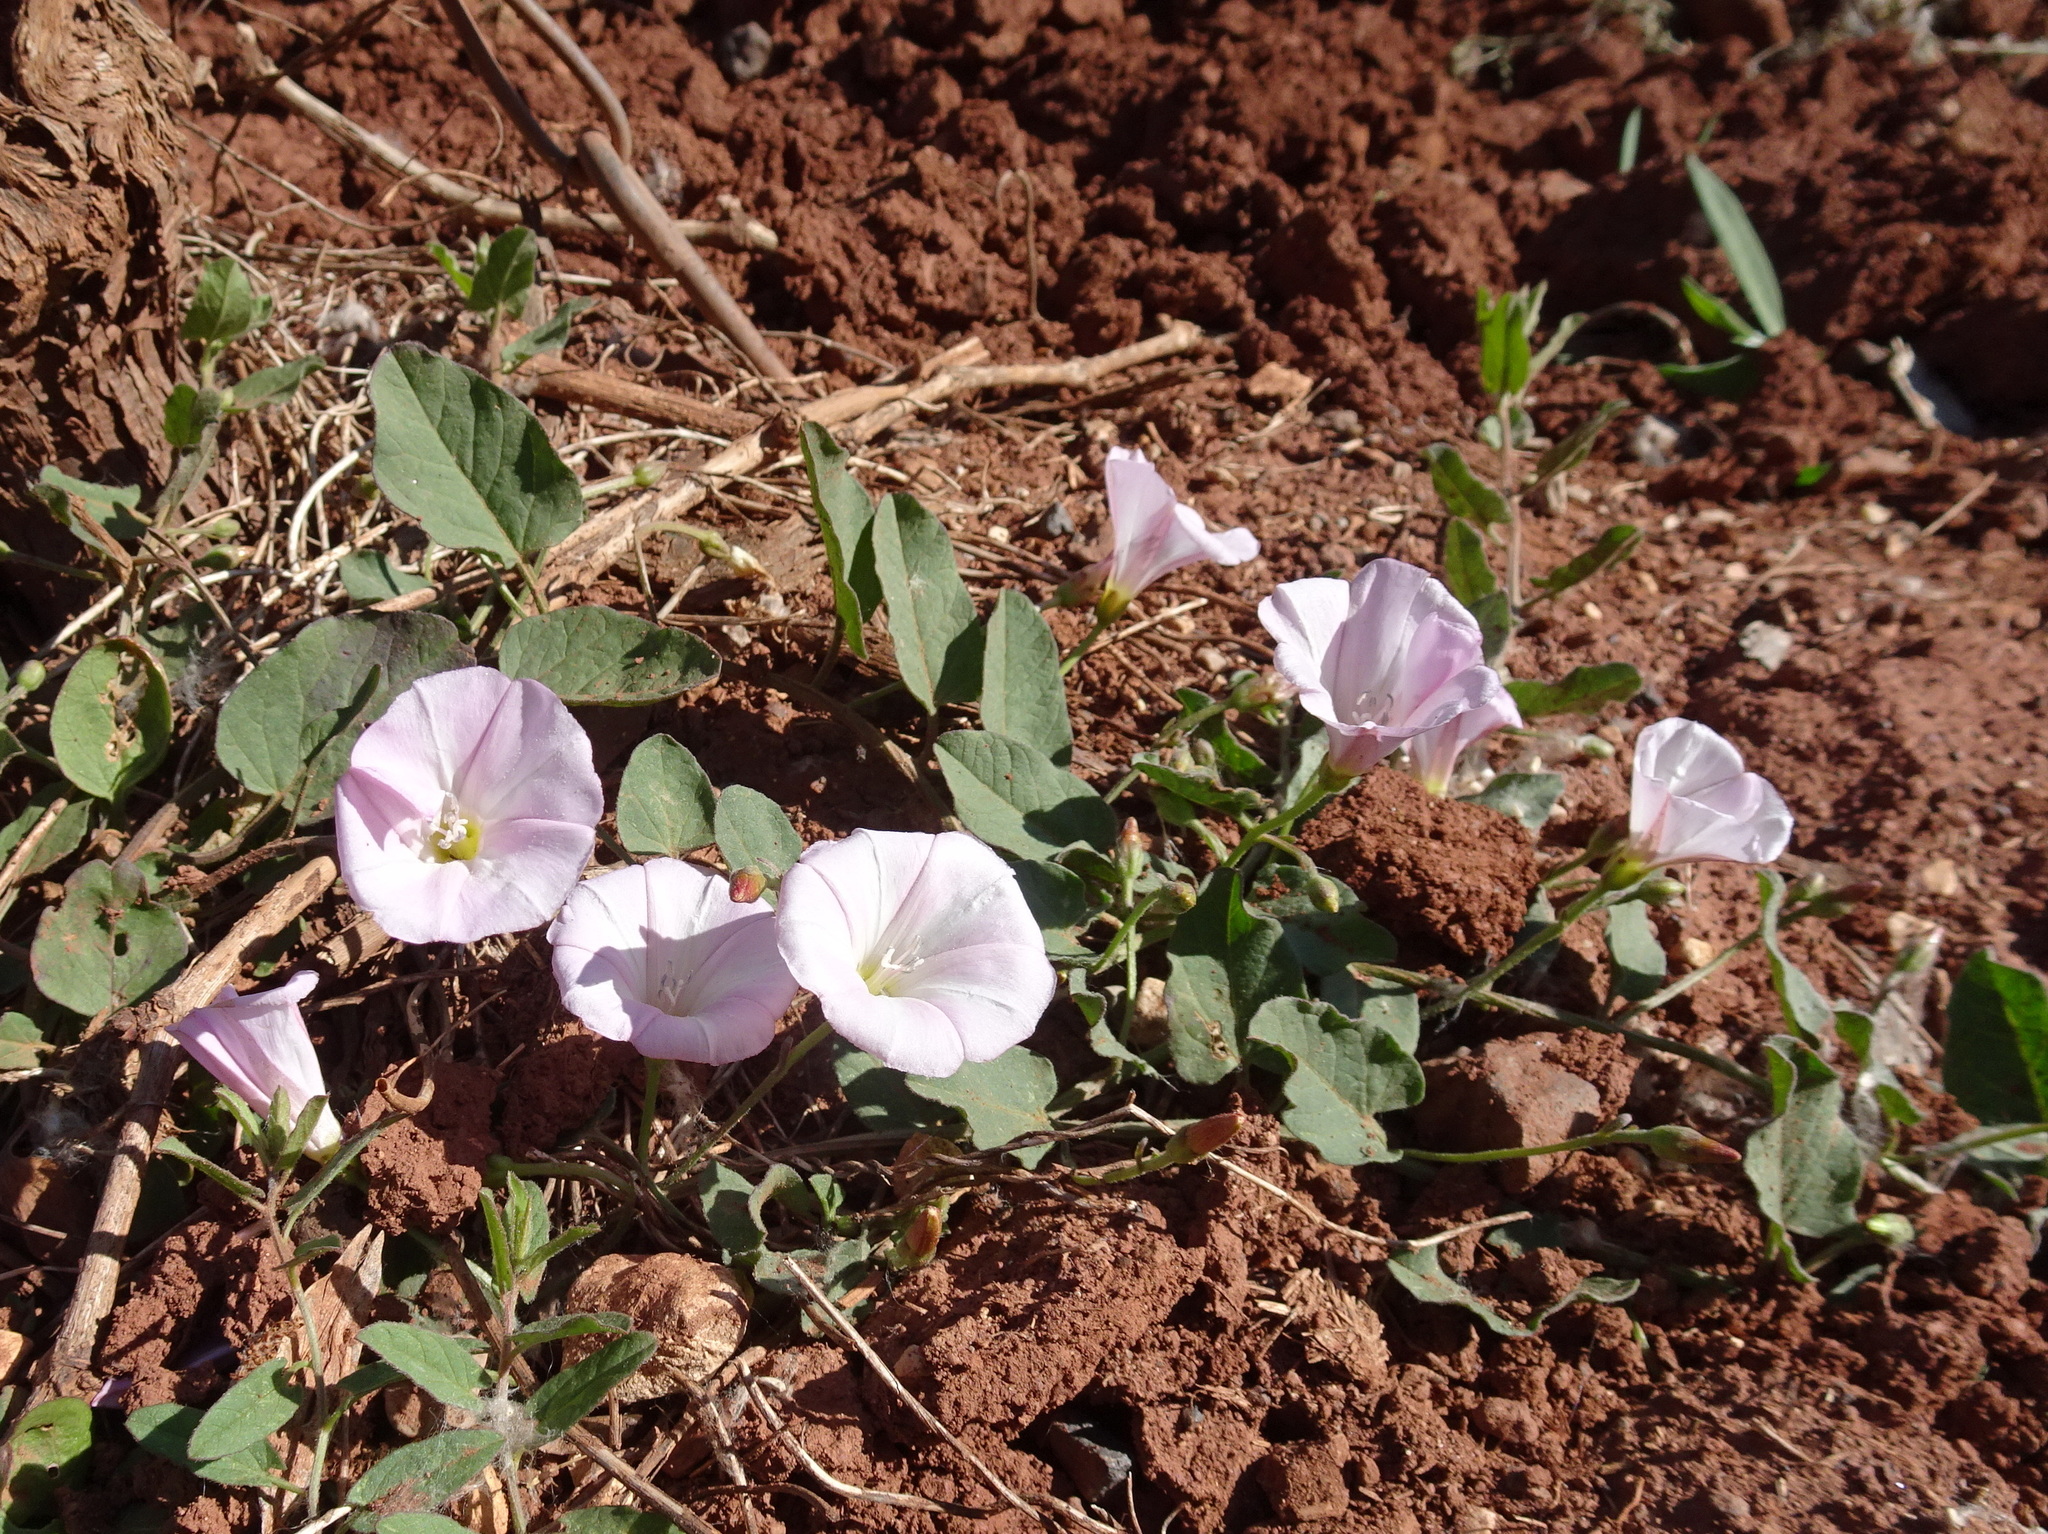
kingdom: Plantae
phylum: Tracheophyta
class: Magnoliopsida
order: Solanales
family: Convolvulaceae
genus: Convolvulus
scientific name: Convolvulus arvensis
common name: Field bindweed
